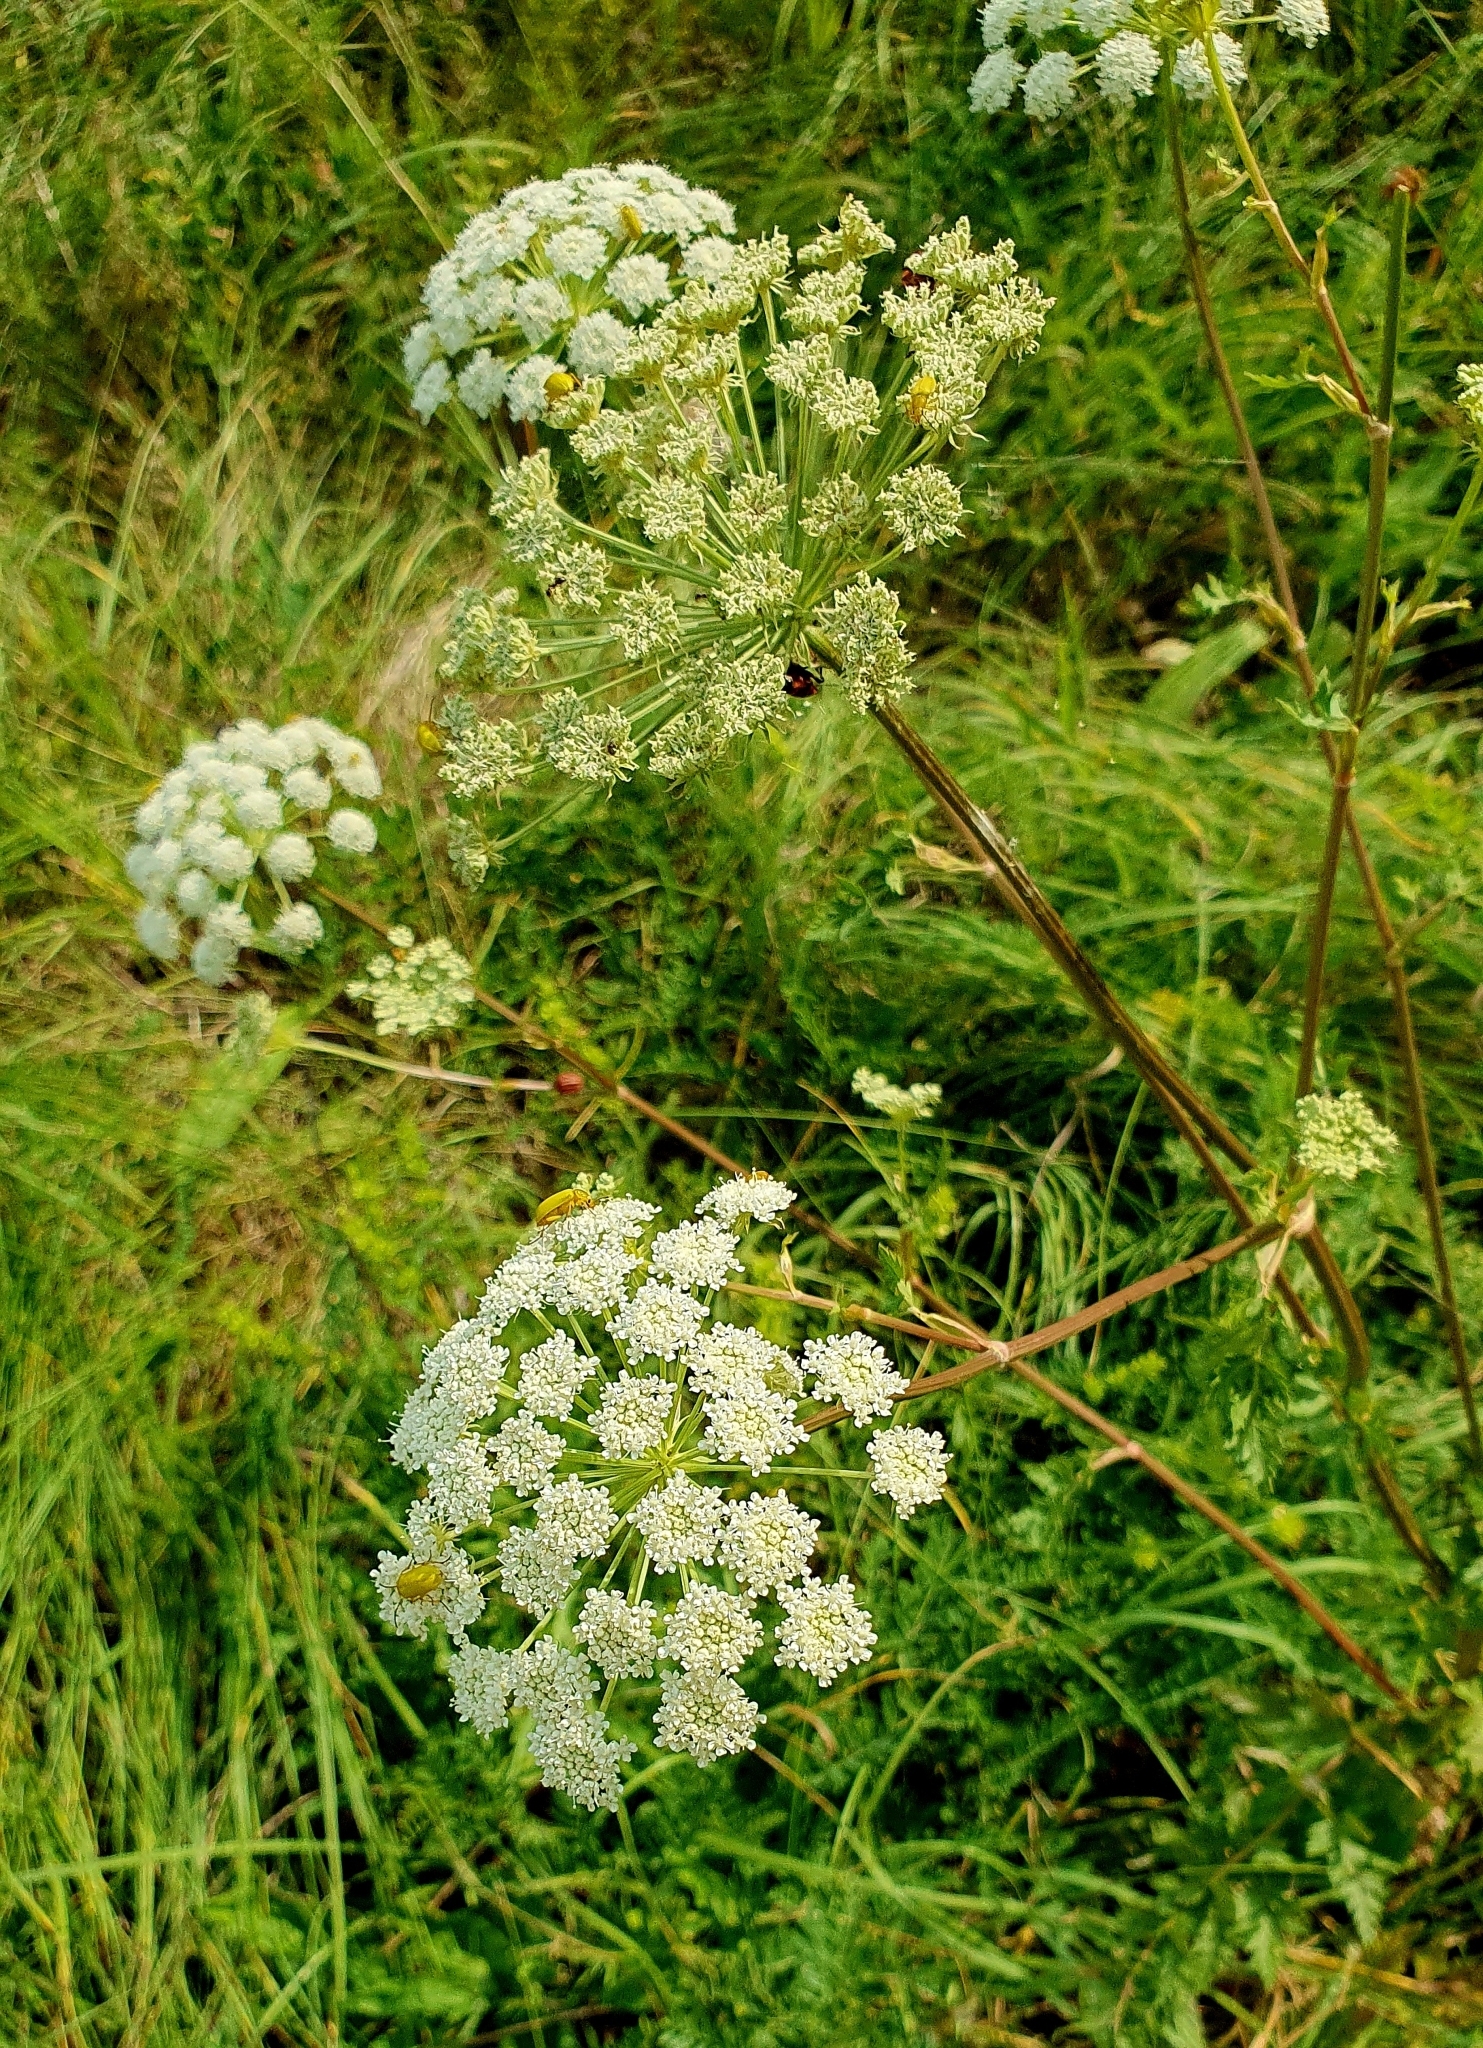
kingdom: Plantae
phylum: Tracheophyta
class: Magnoliopsida
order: Apiales
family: Apiaceae
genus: Seseli
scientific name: Seseli libanotis
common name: Mooncarrot
